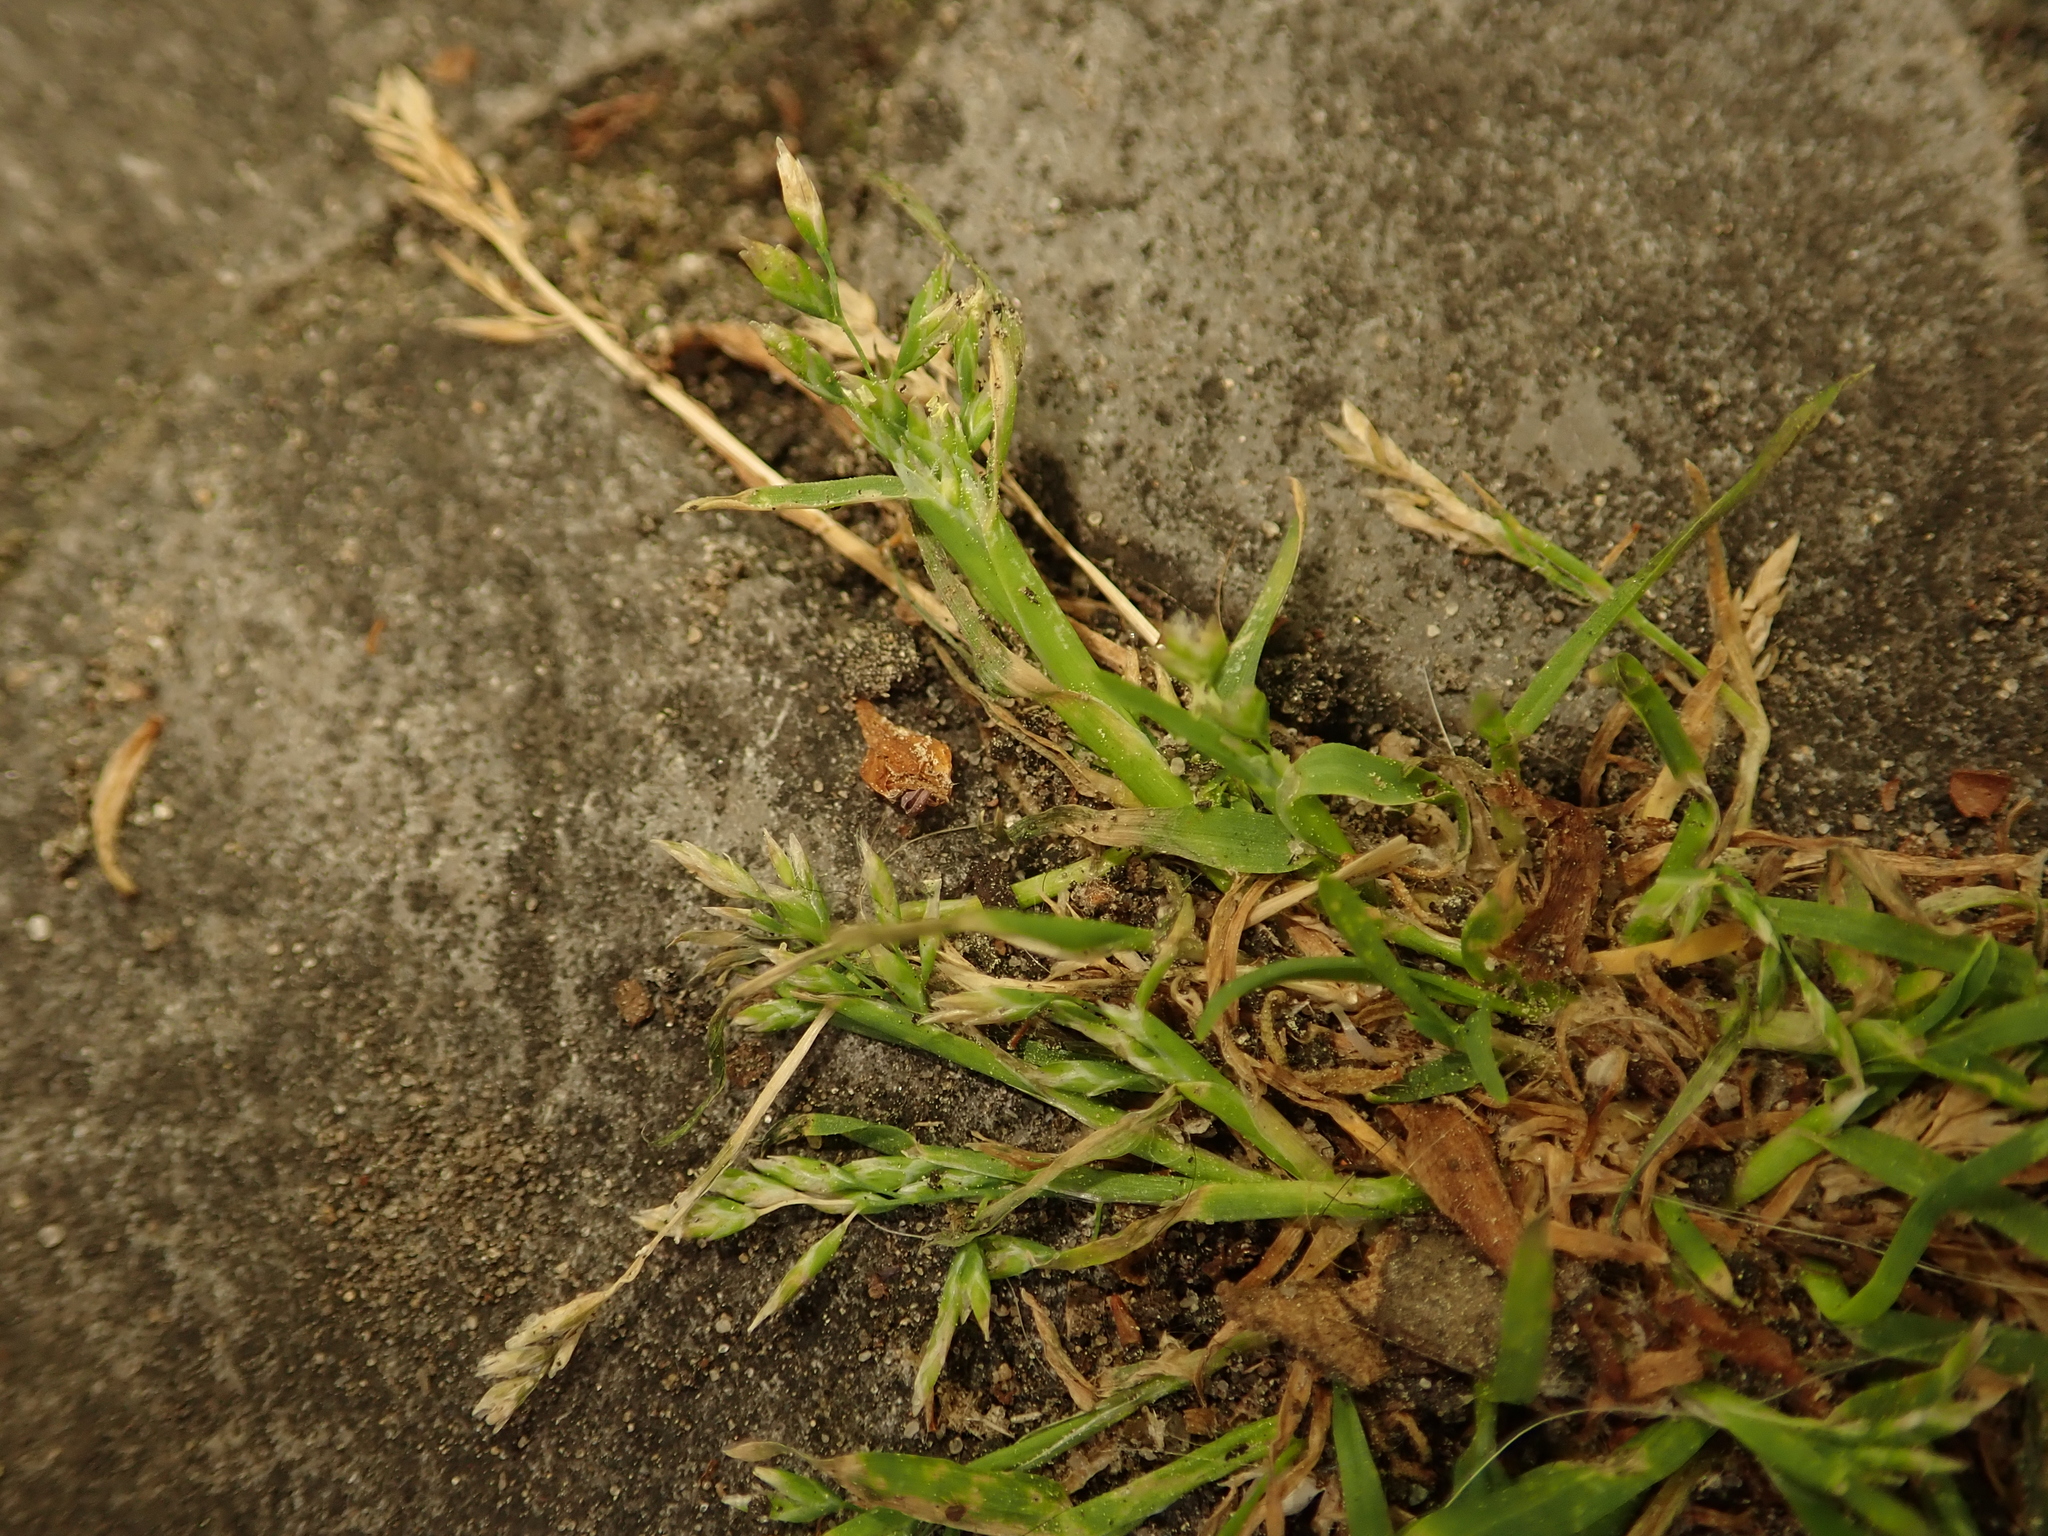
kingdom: Plantae
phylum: Tracheophyta
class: Liliopsida
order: Poales
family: Poaceae
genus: Poa
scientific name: Poa annua
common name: Annual bluegrass
